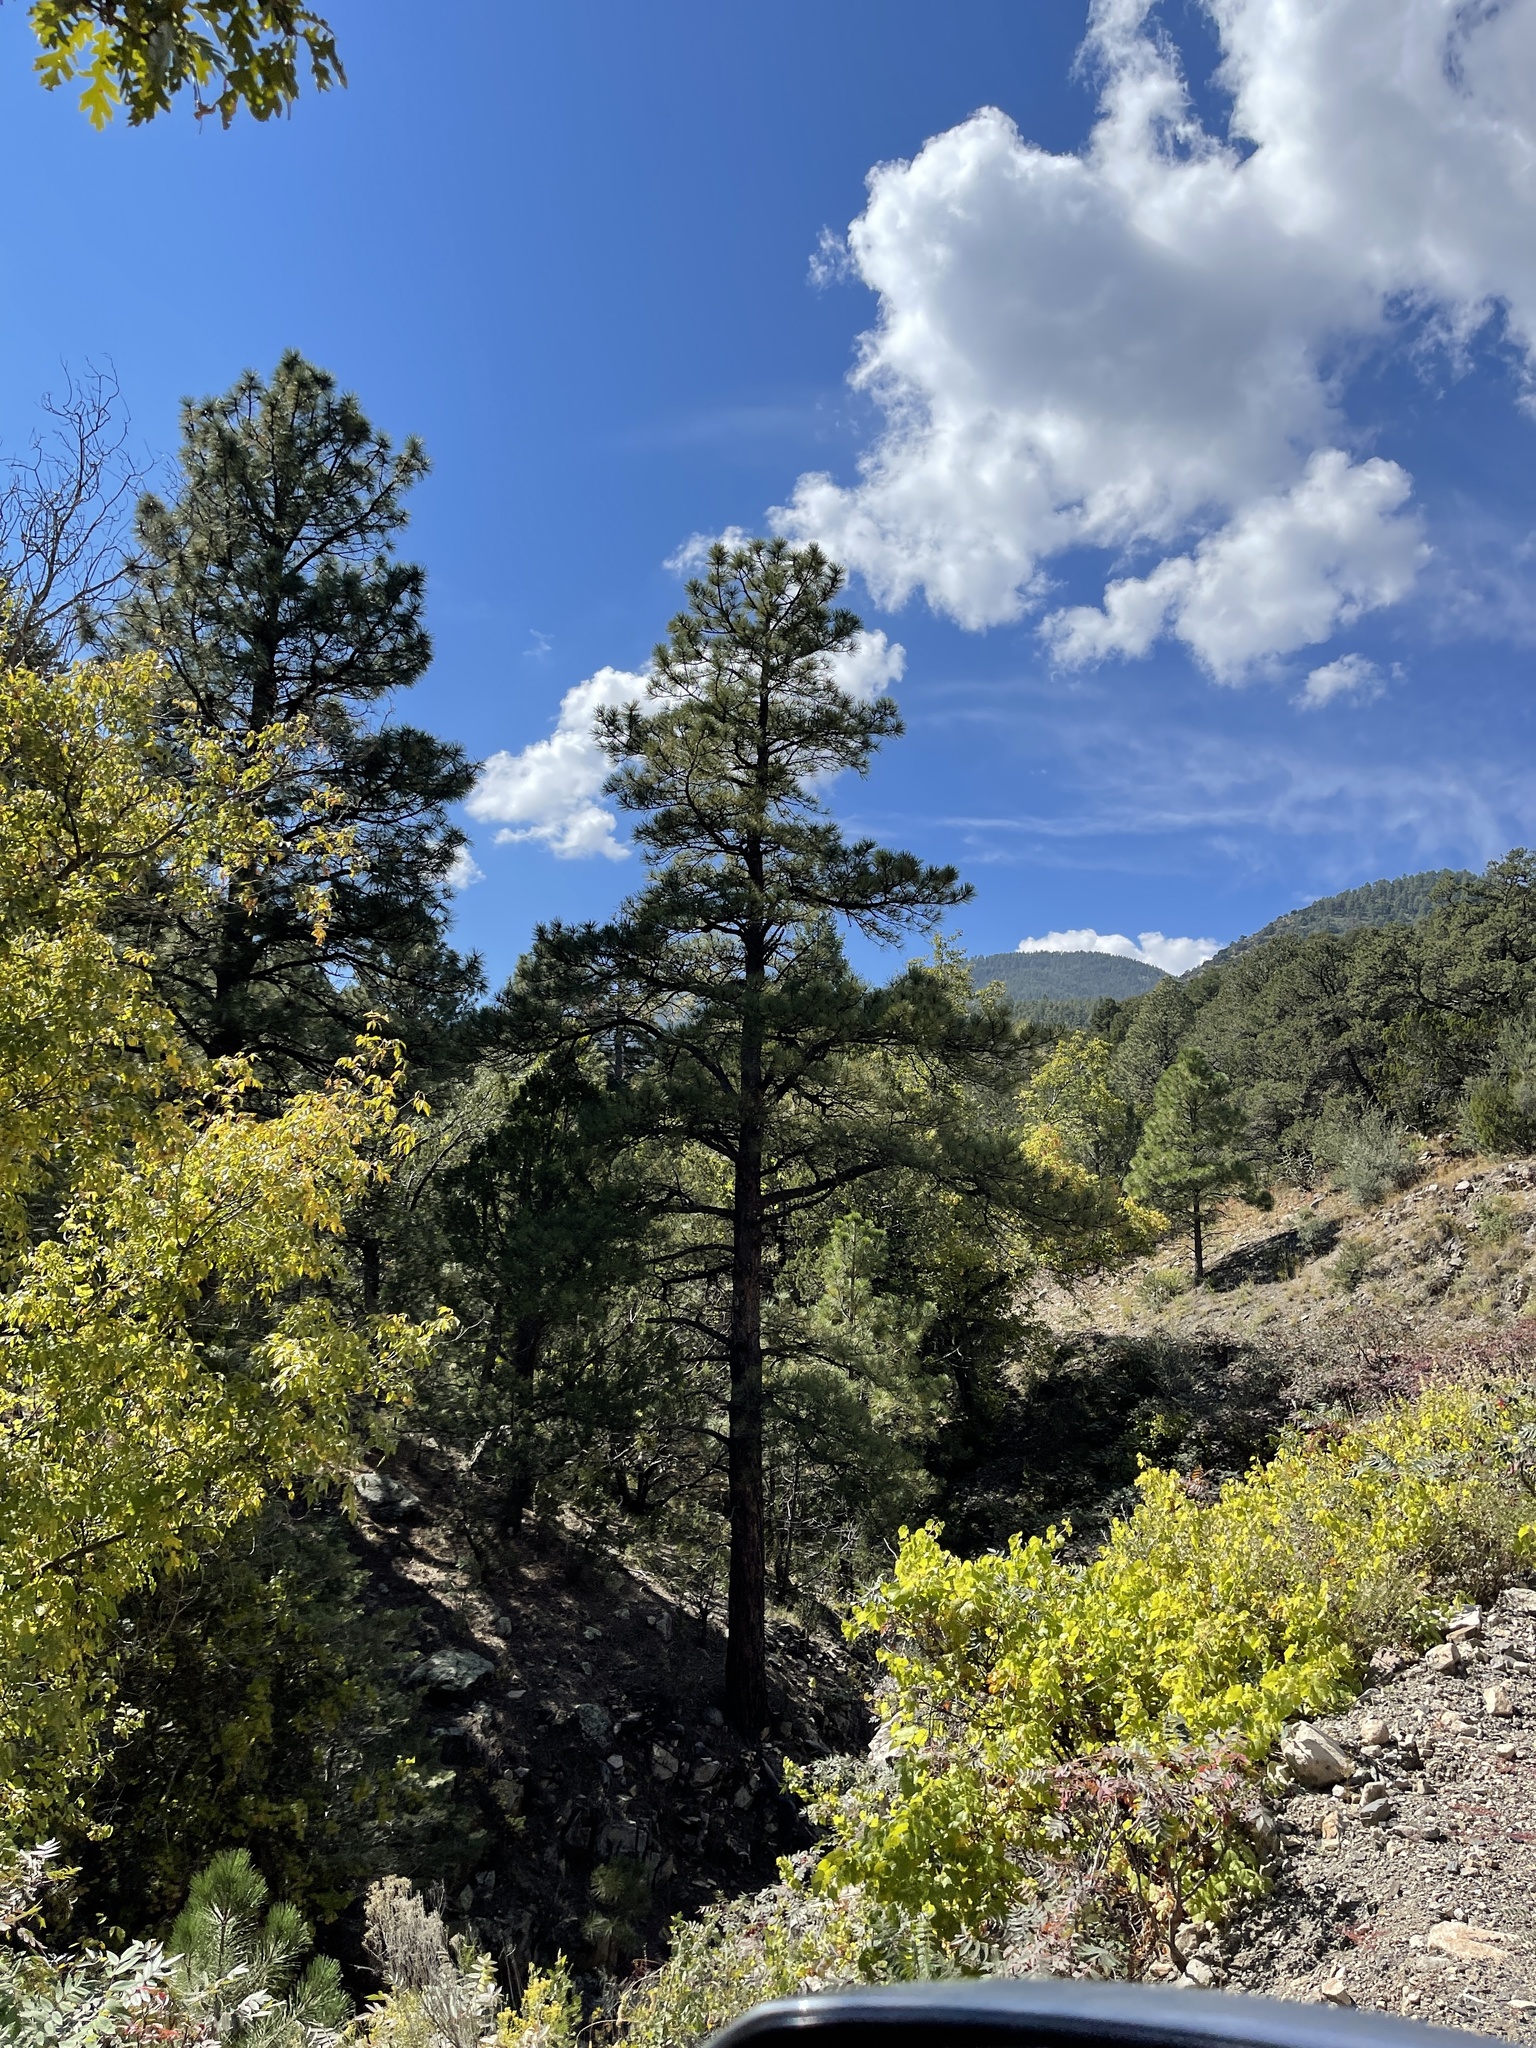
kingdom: Plantae
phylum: Tracheophyta
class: Pinopsida
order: Pinales
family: Pinaceae
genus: Pinus
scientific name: Pinus ponderosa
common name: Western yellow-pine
